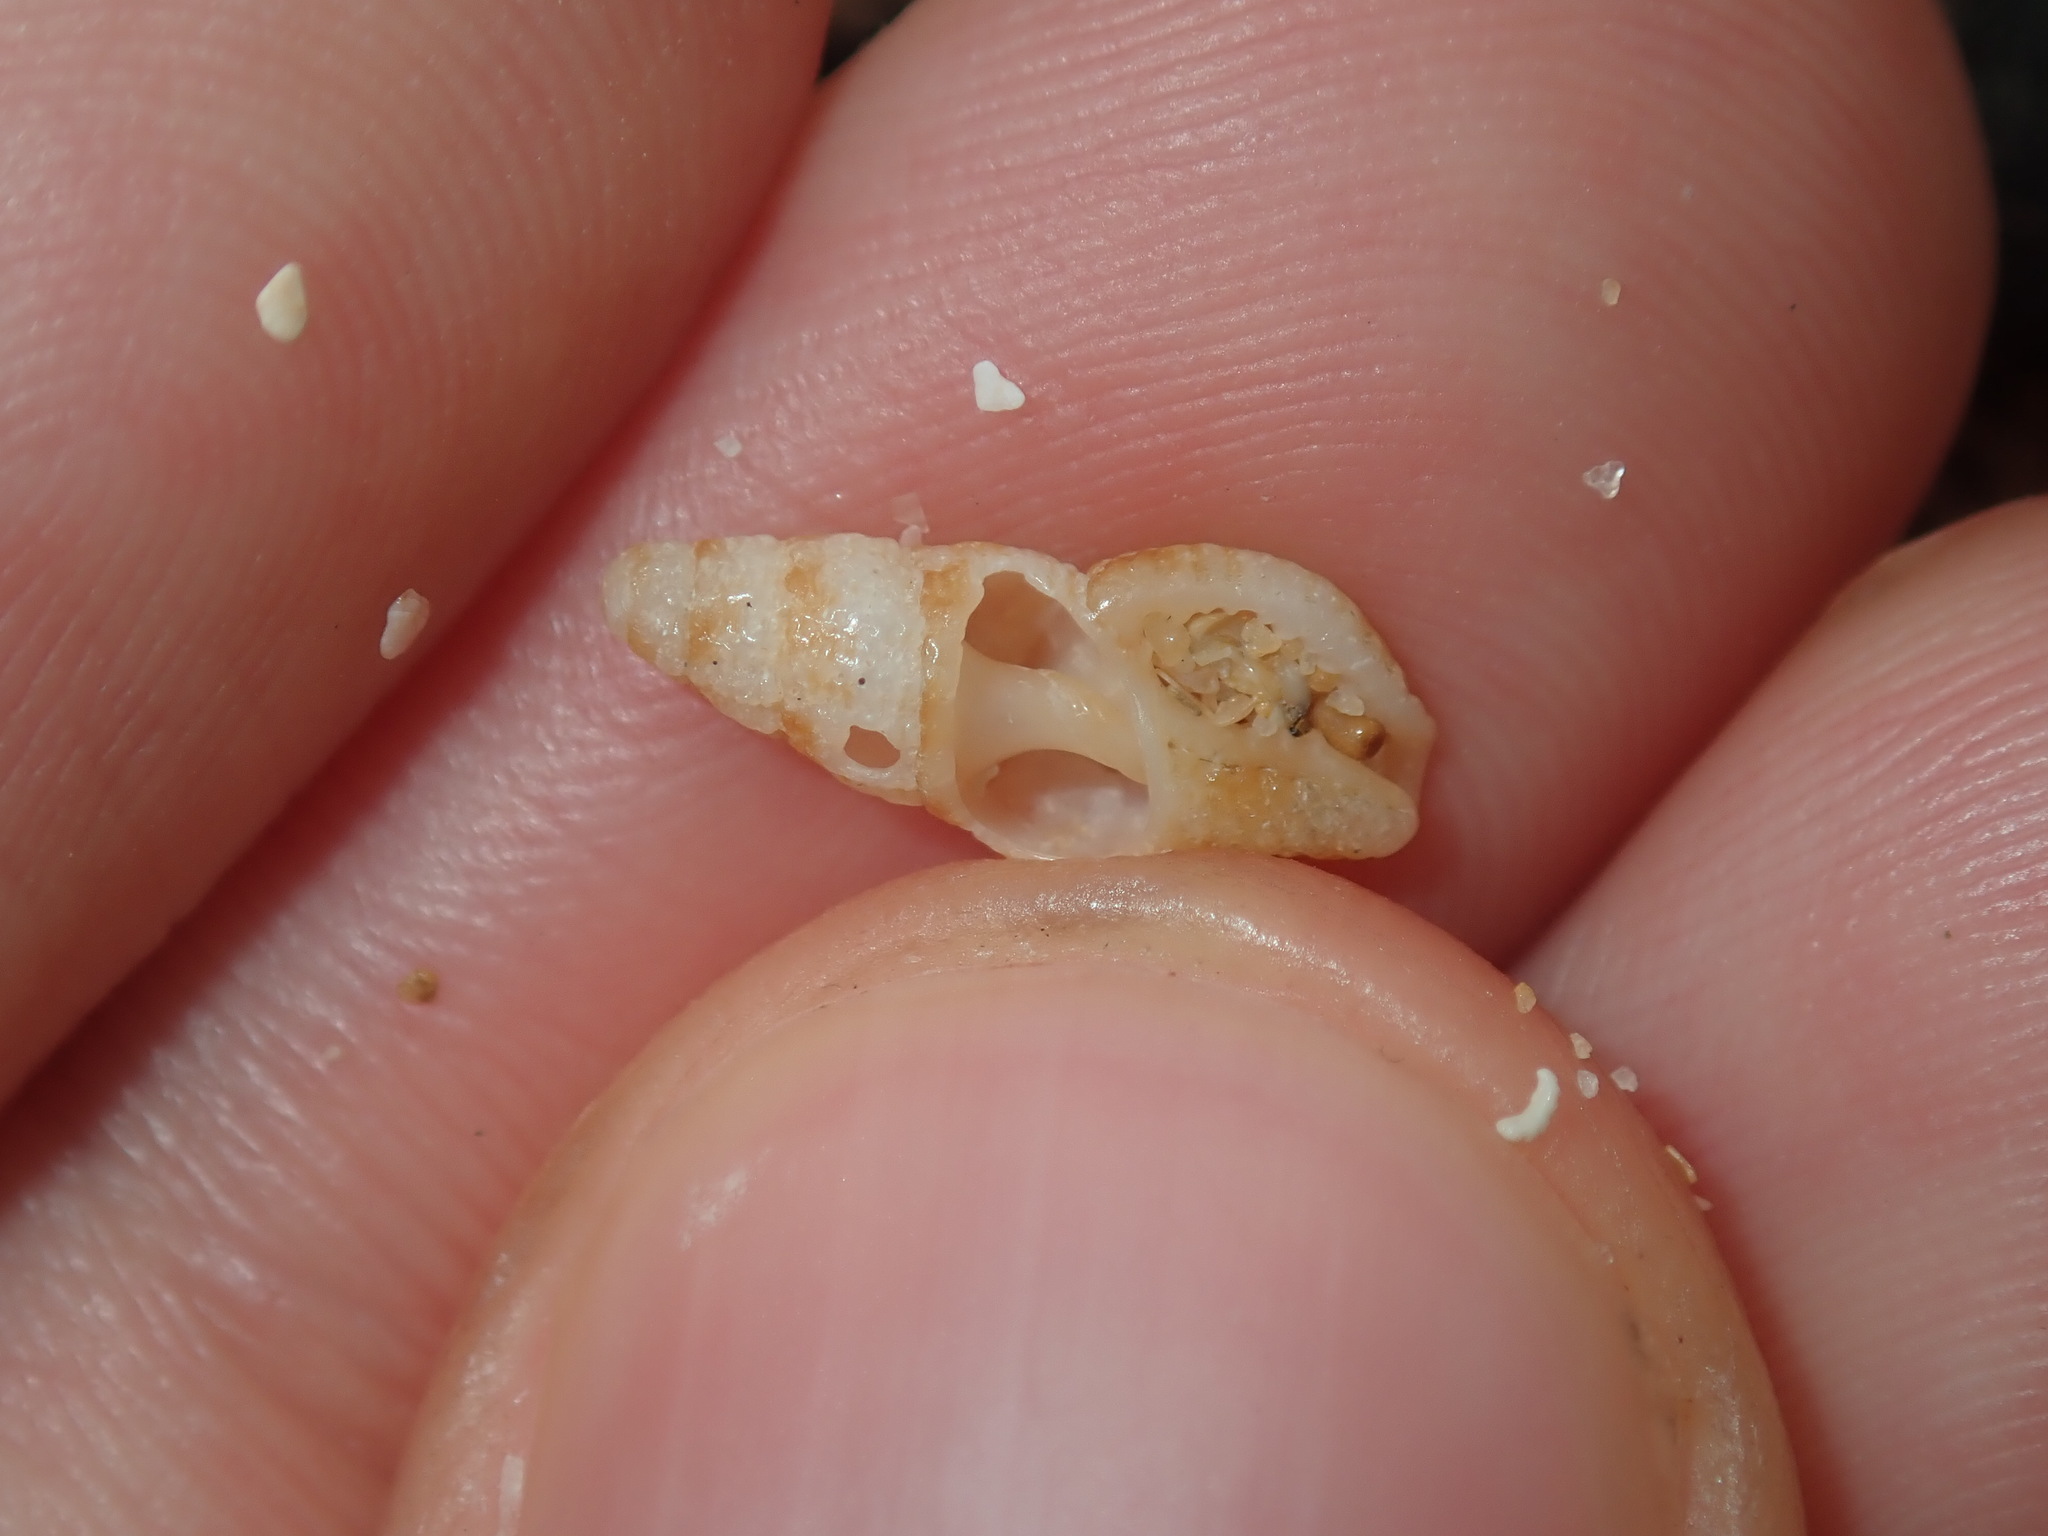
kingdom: Animalia
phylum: Mollusca
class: Gastropoda
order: Neogastropoda
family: Pisaniidae
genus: Engina
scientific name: Engina australis
